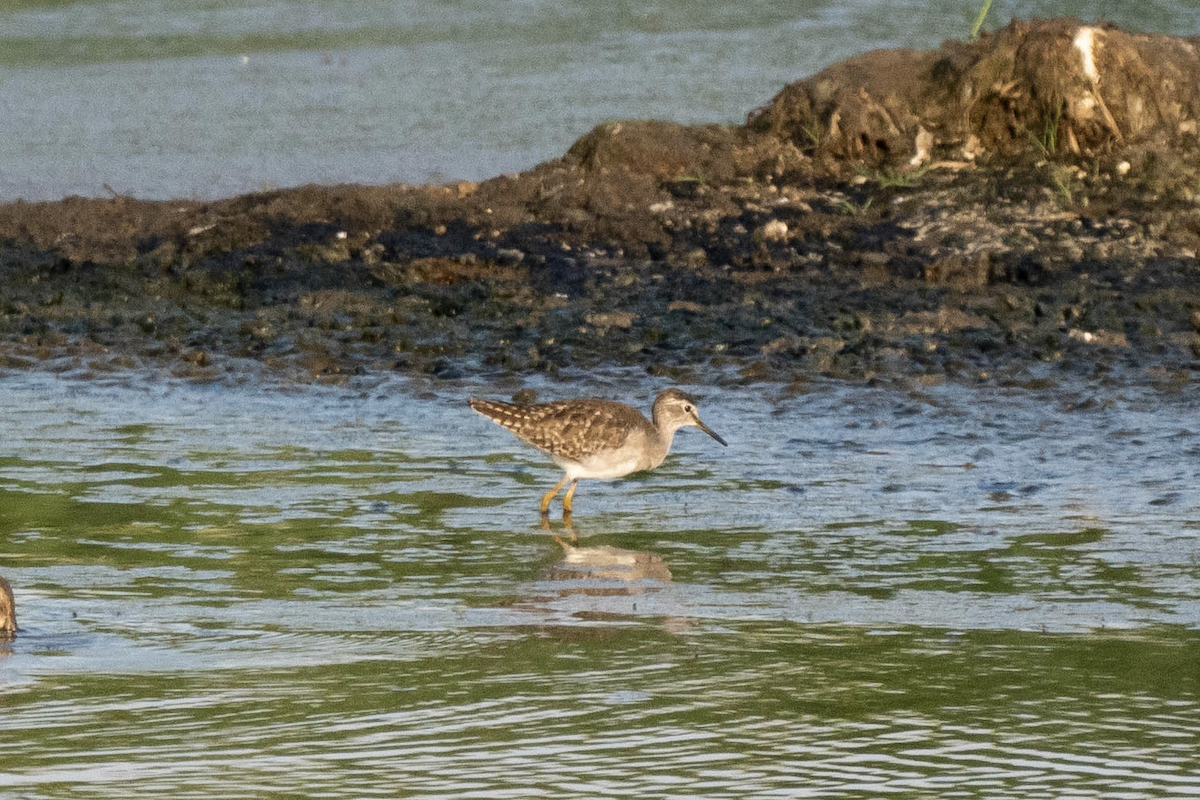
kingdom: Animalia
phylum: Chordata
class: Aves
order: Charadriiformes
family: Scolopacidae
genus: Tringa
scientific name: Tringa glareola
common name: Wood sandpiper
